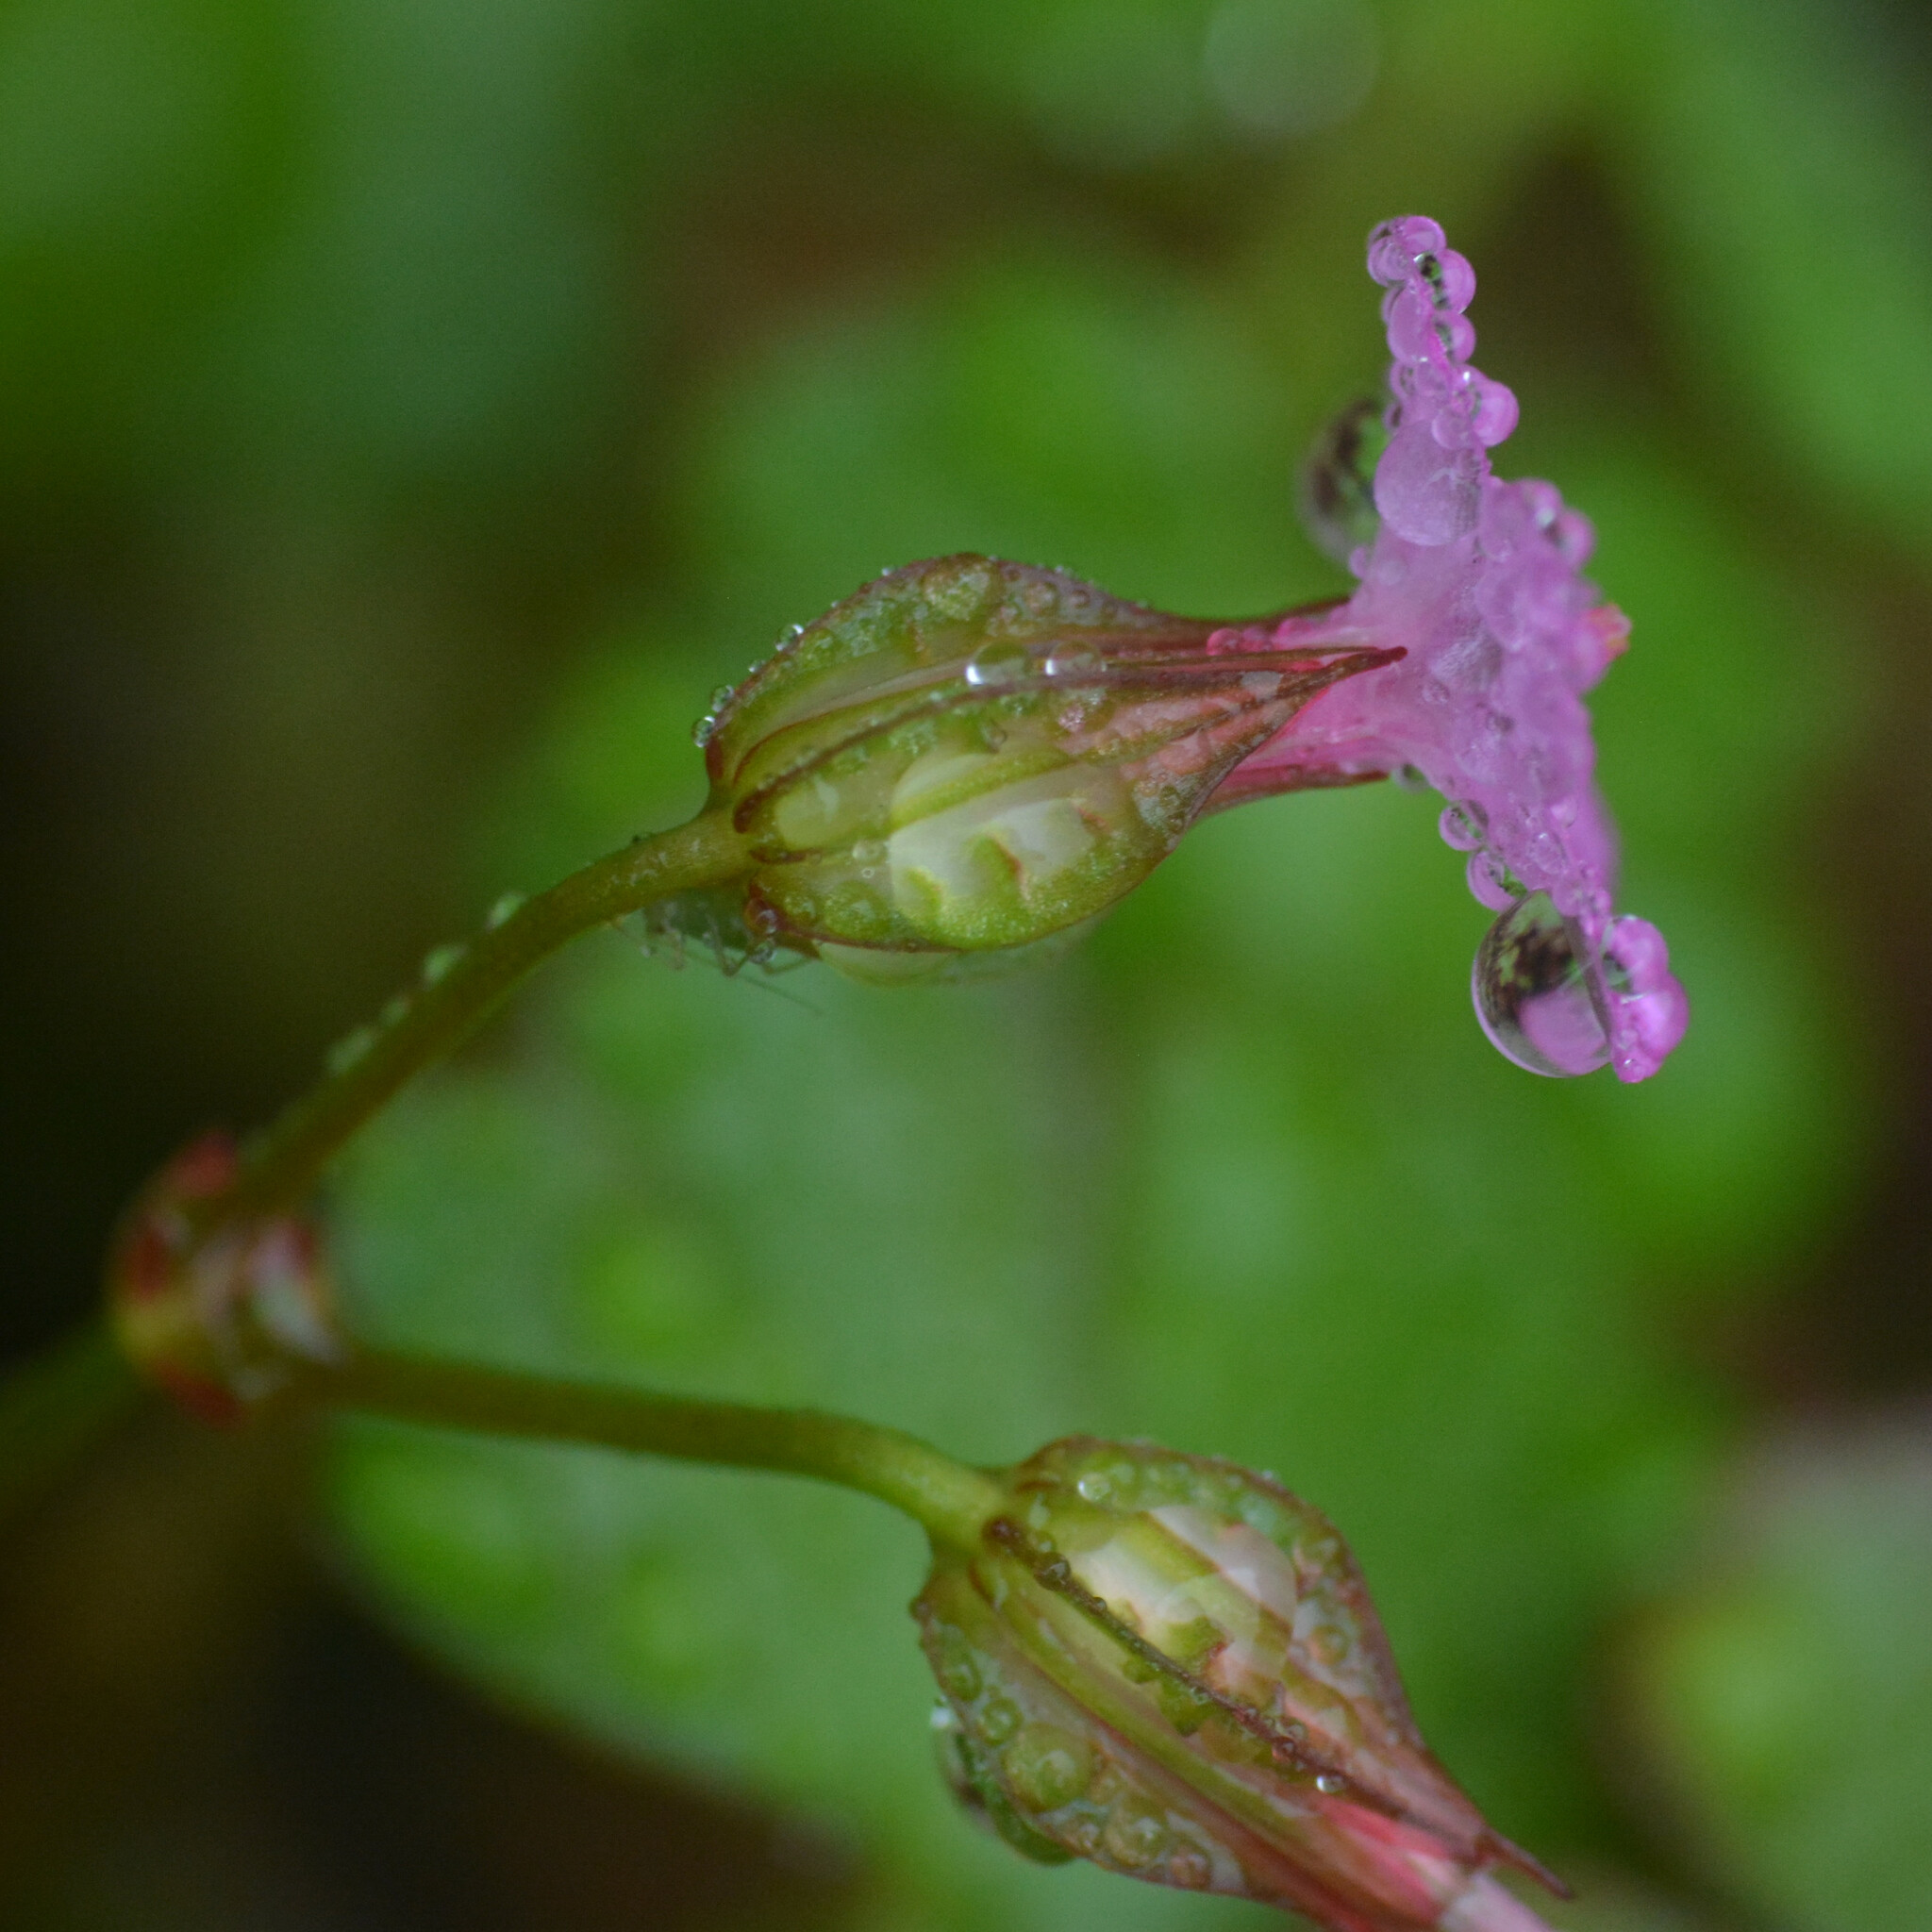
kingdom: Plantae
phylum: Tracheophyta
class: Magnoliopsida
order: Geraniales
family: Geraniaceae
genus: Geranium
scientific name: Geranium lucidum
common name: Shining crane's-bill
